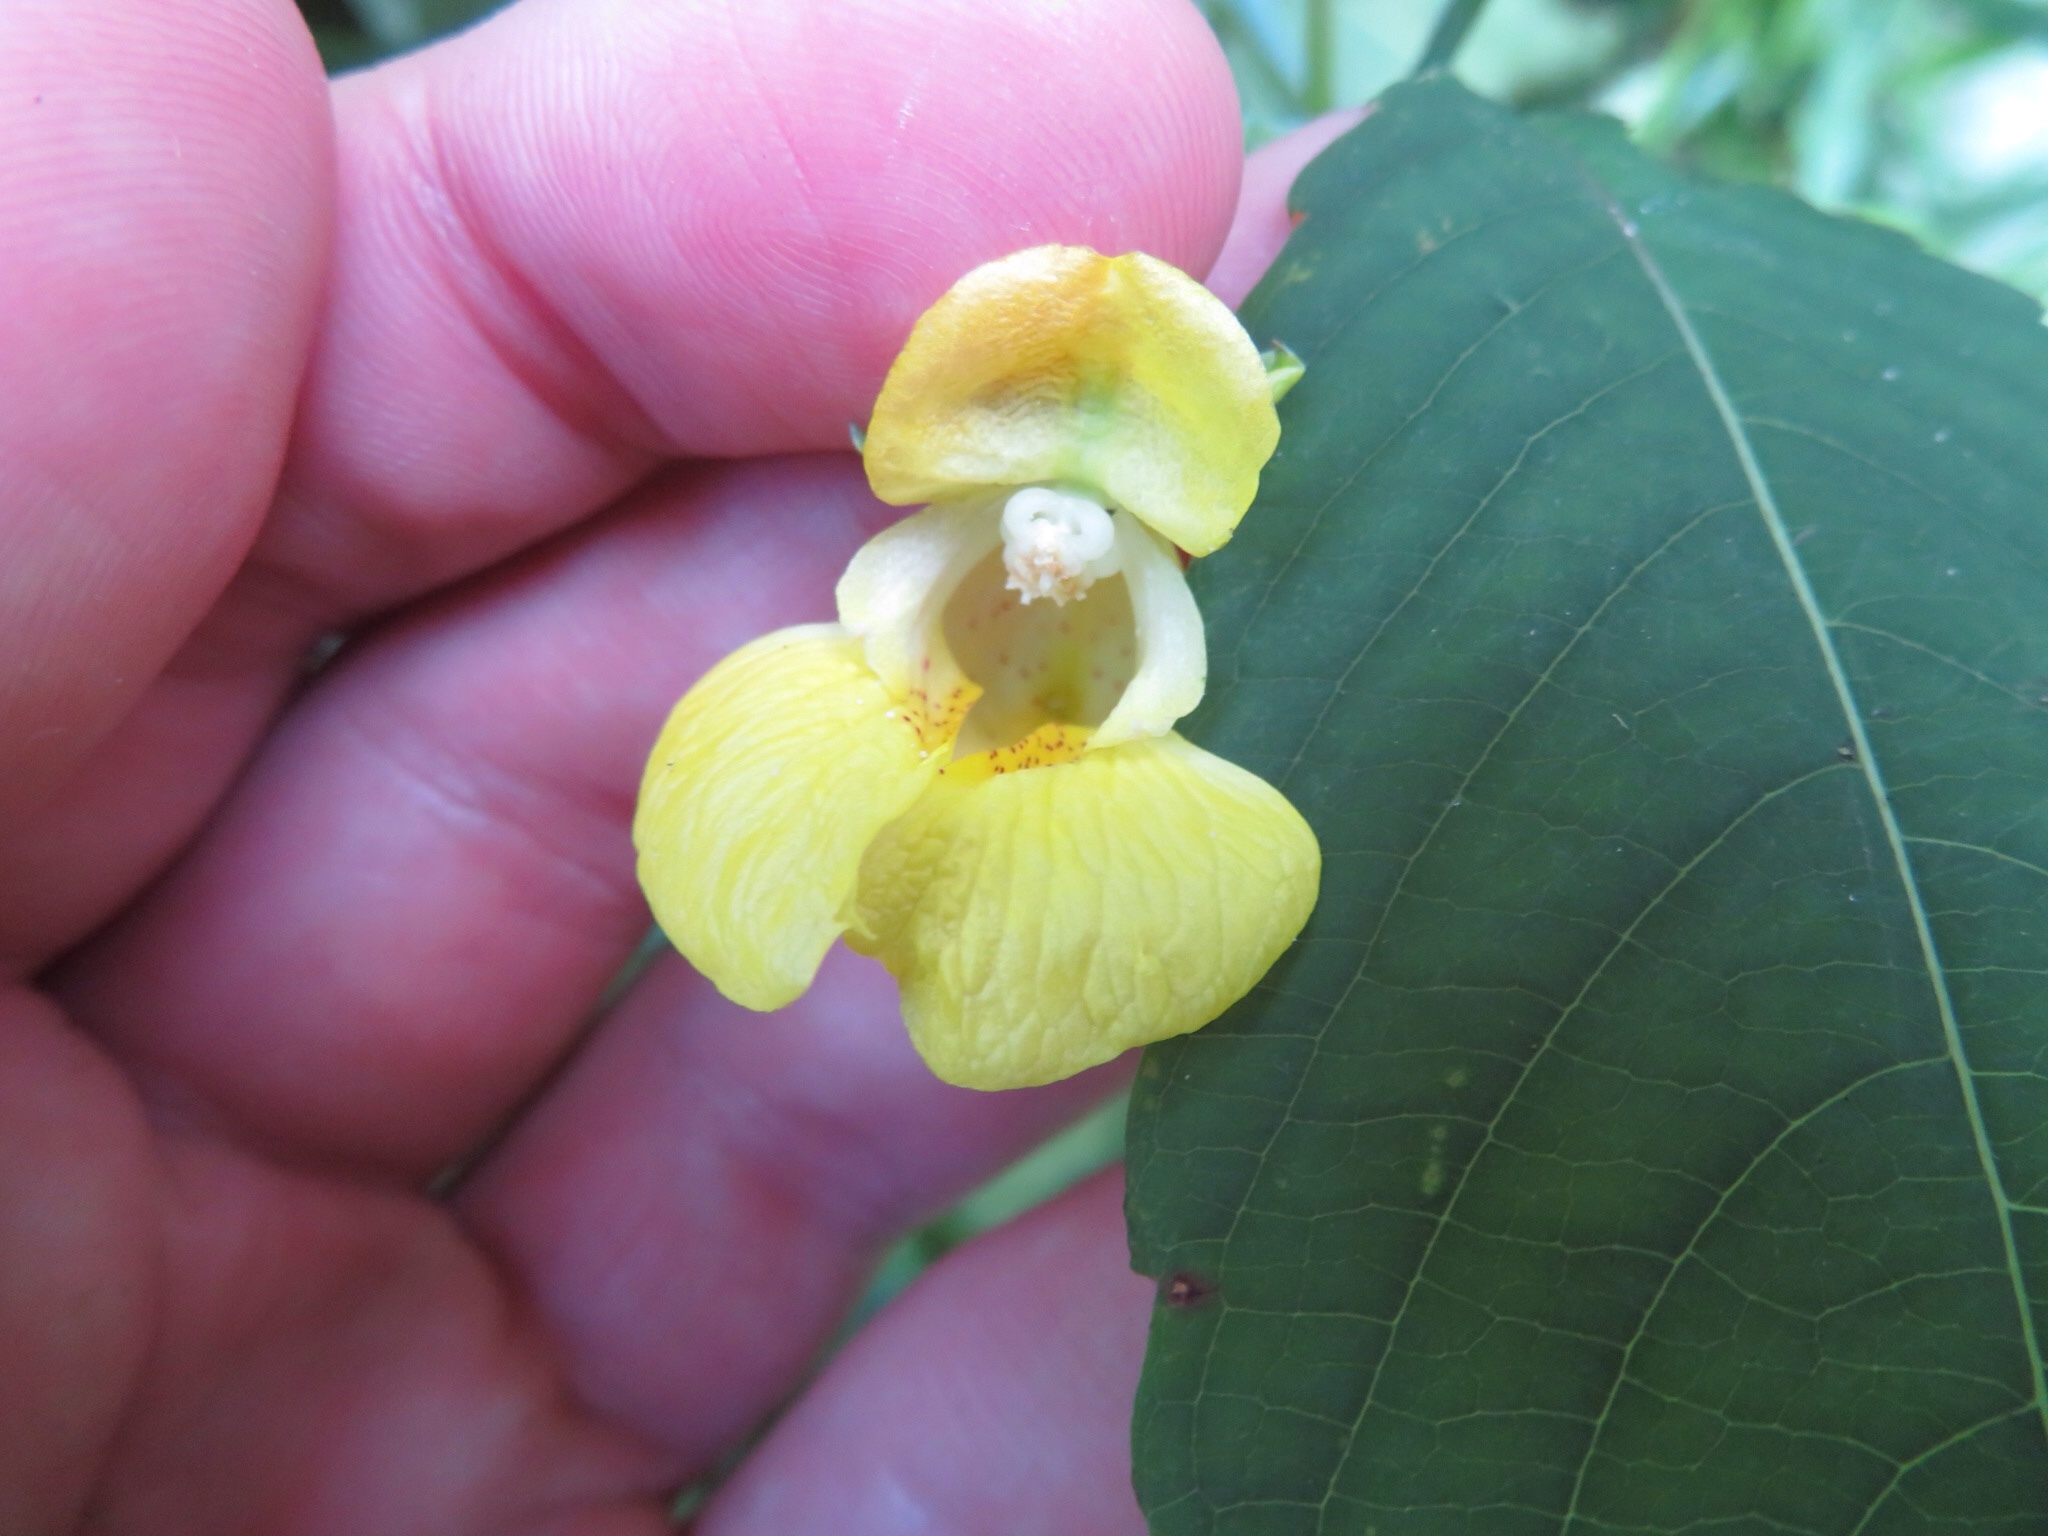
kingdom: Plantae
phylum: Tracheophyta
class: Magnoliopsida
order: Ericales
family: Balsaminaceae
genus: Impatiens
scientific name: Impatiens pallida
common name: Pale snapweed
